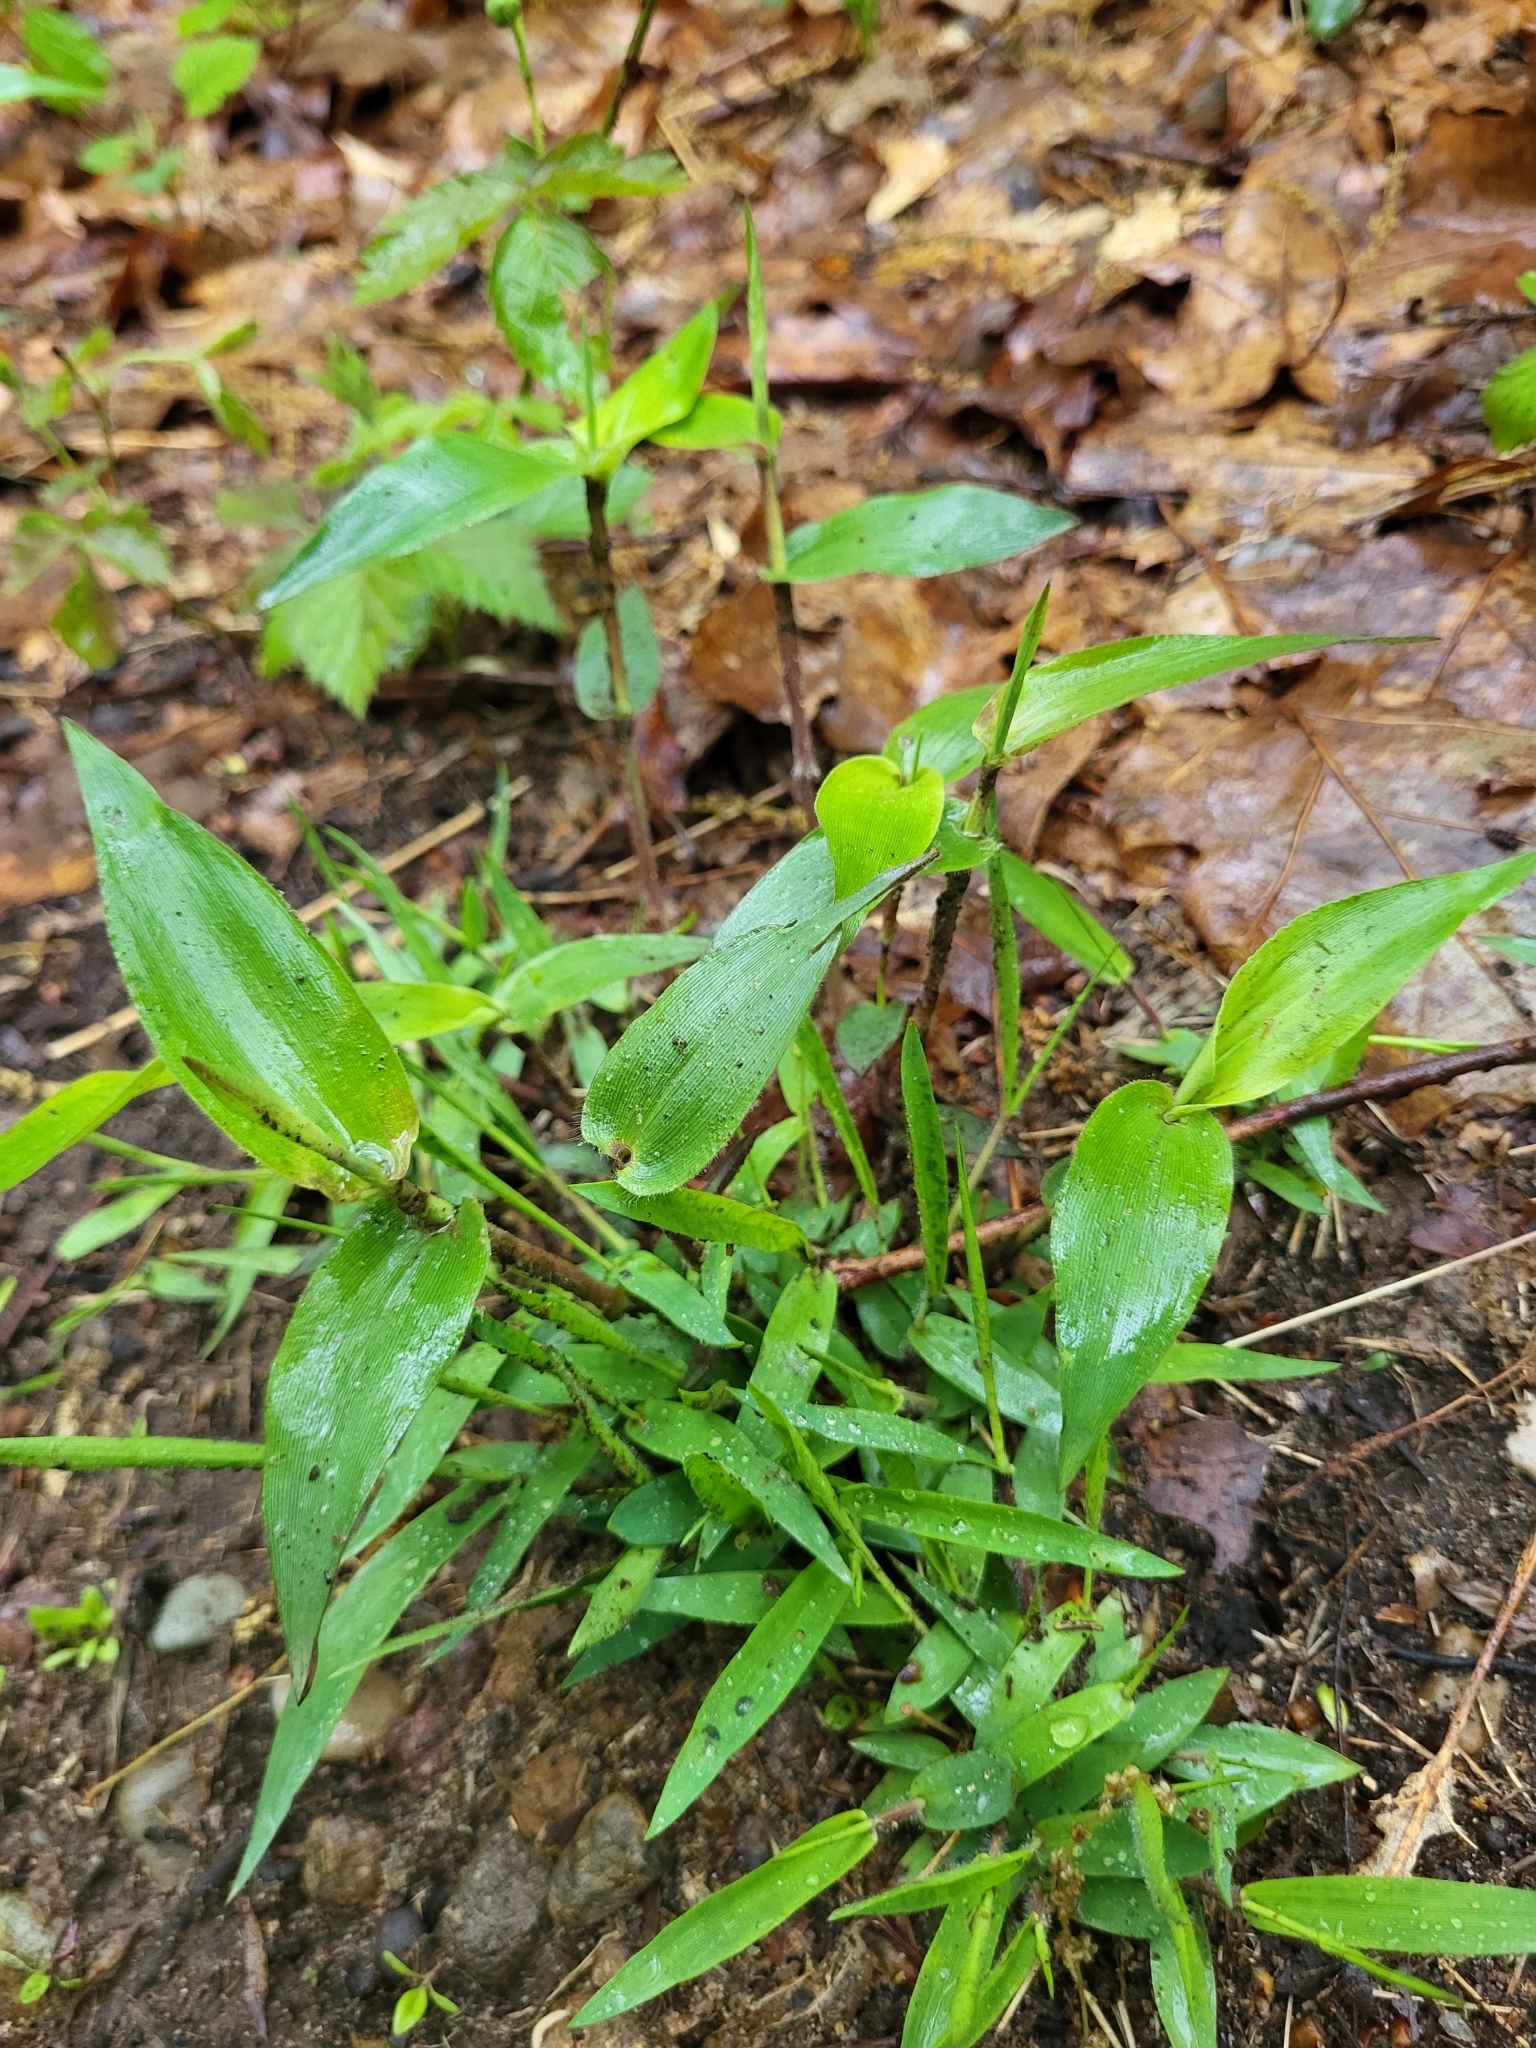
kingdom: Plantae
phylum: Tracheophyta
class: Liliopsida
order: Poales
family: Poaceae
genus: Dichanthelium
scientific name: Dichanthelium boscii
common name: Bosc's panic grass
